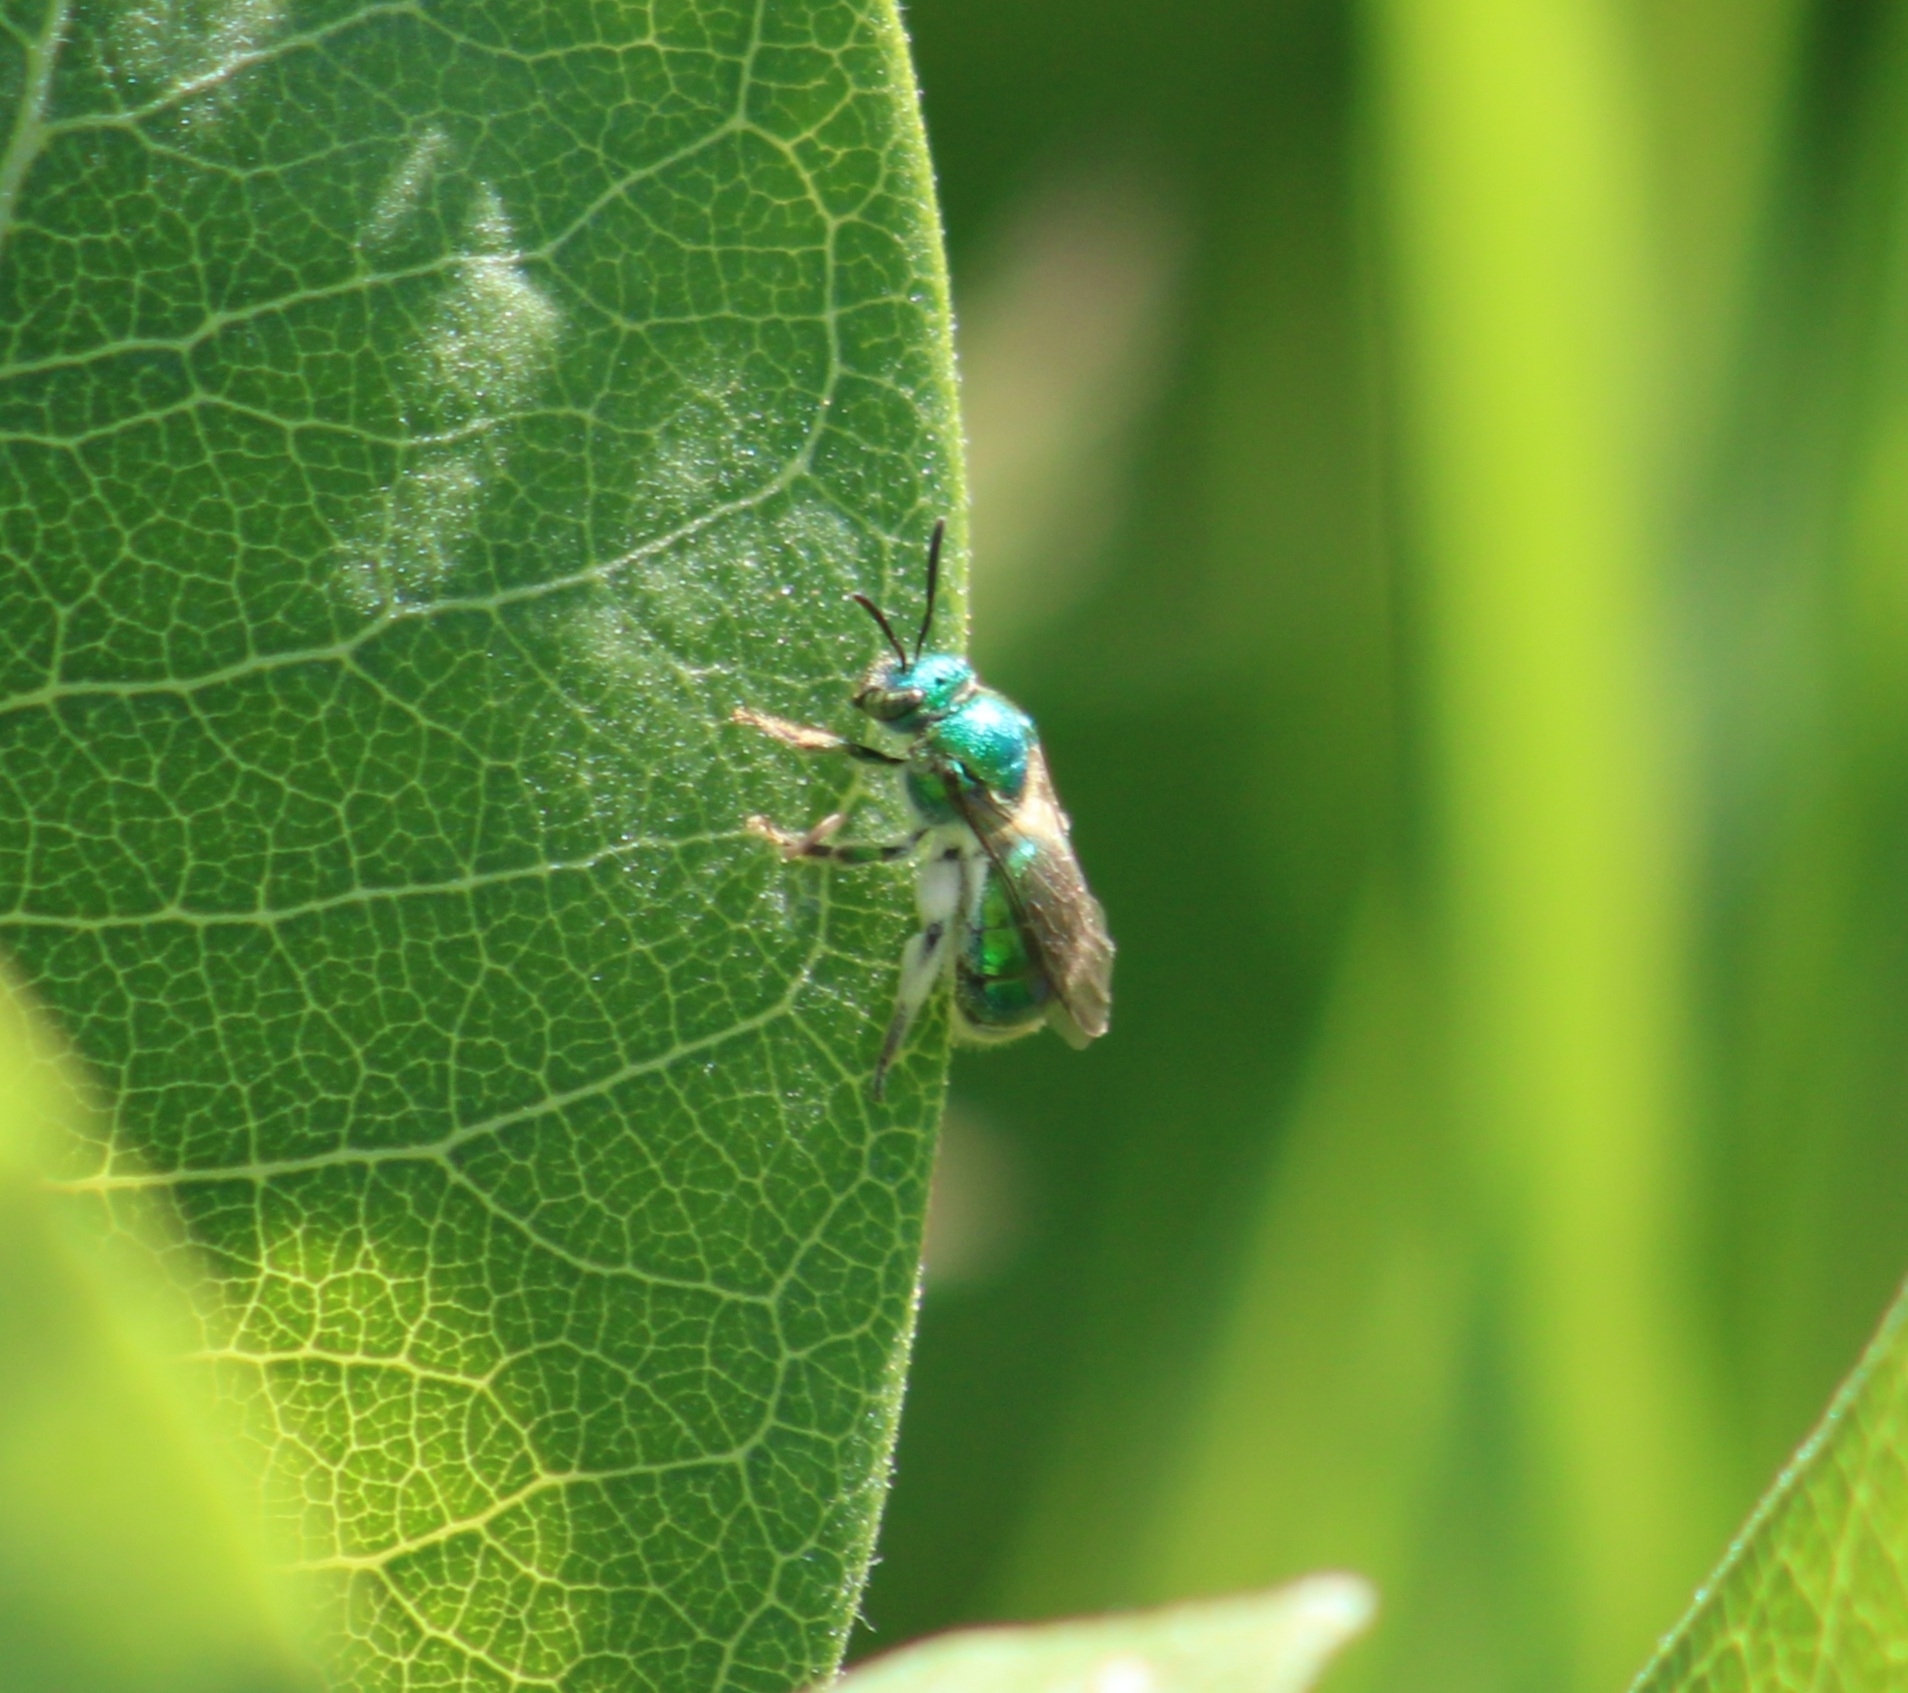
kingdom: Animalia
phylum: Arthropoda
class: Insecta
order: Hymenoptera
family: Halictidae
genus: Augochloropsis
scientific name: Augochloropsis viridula
